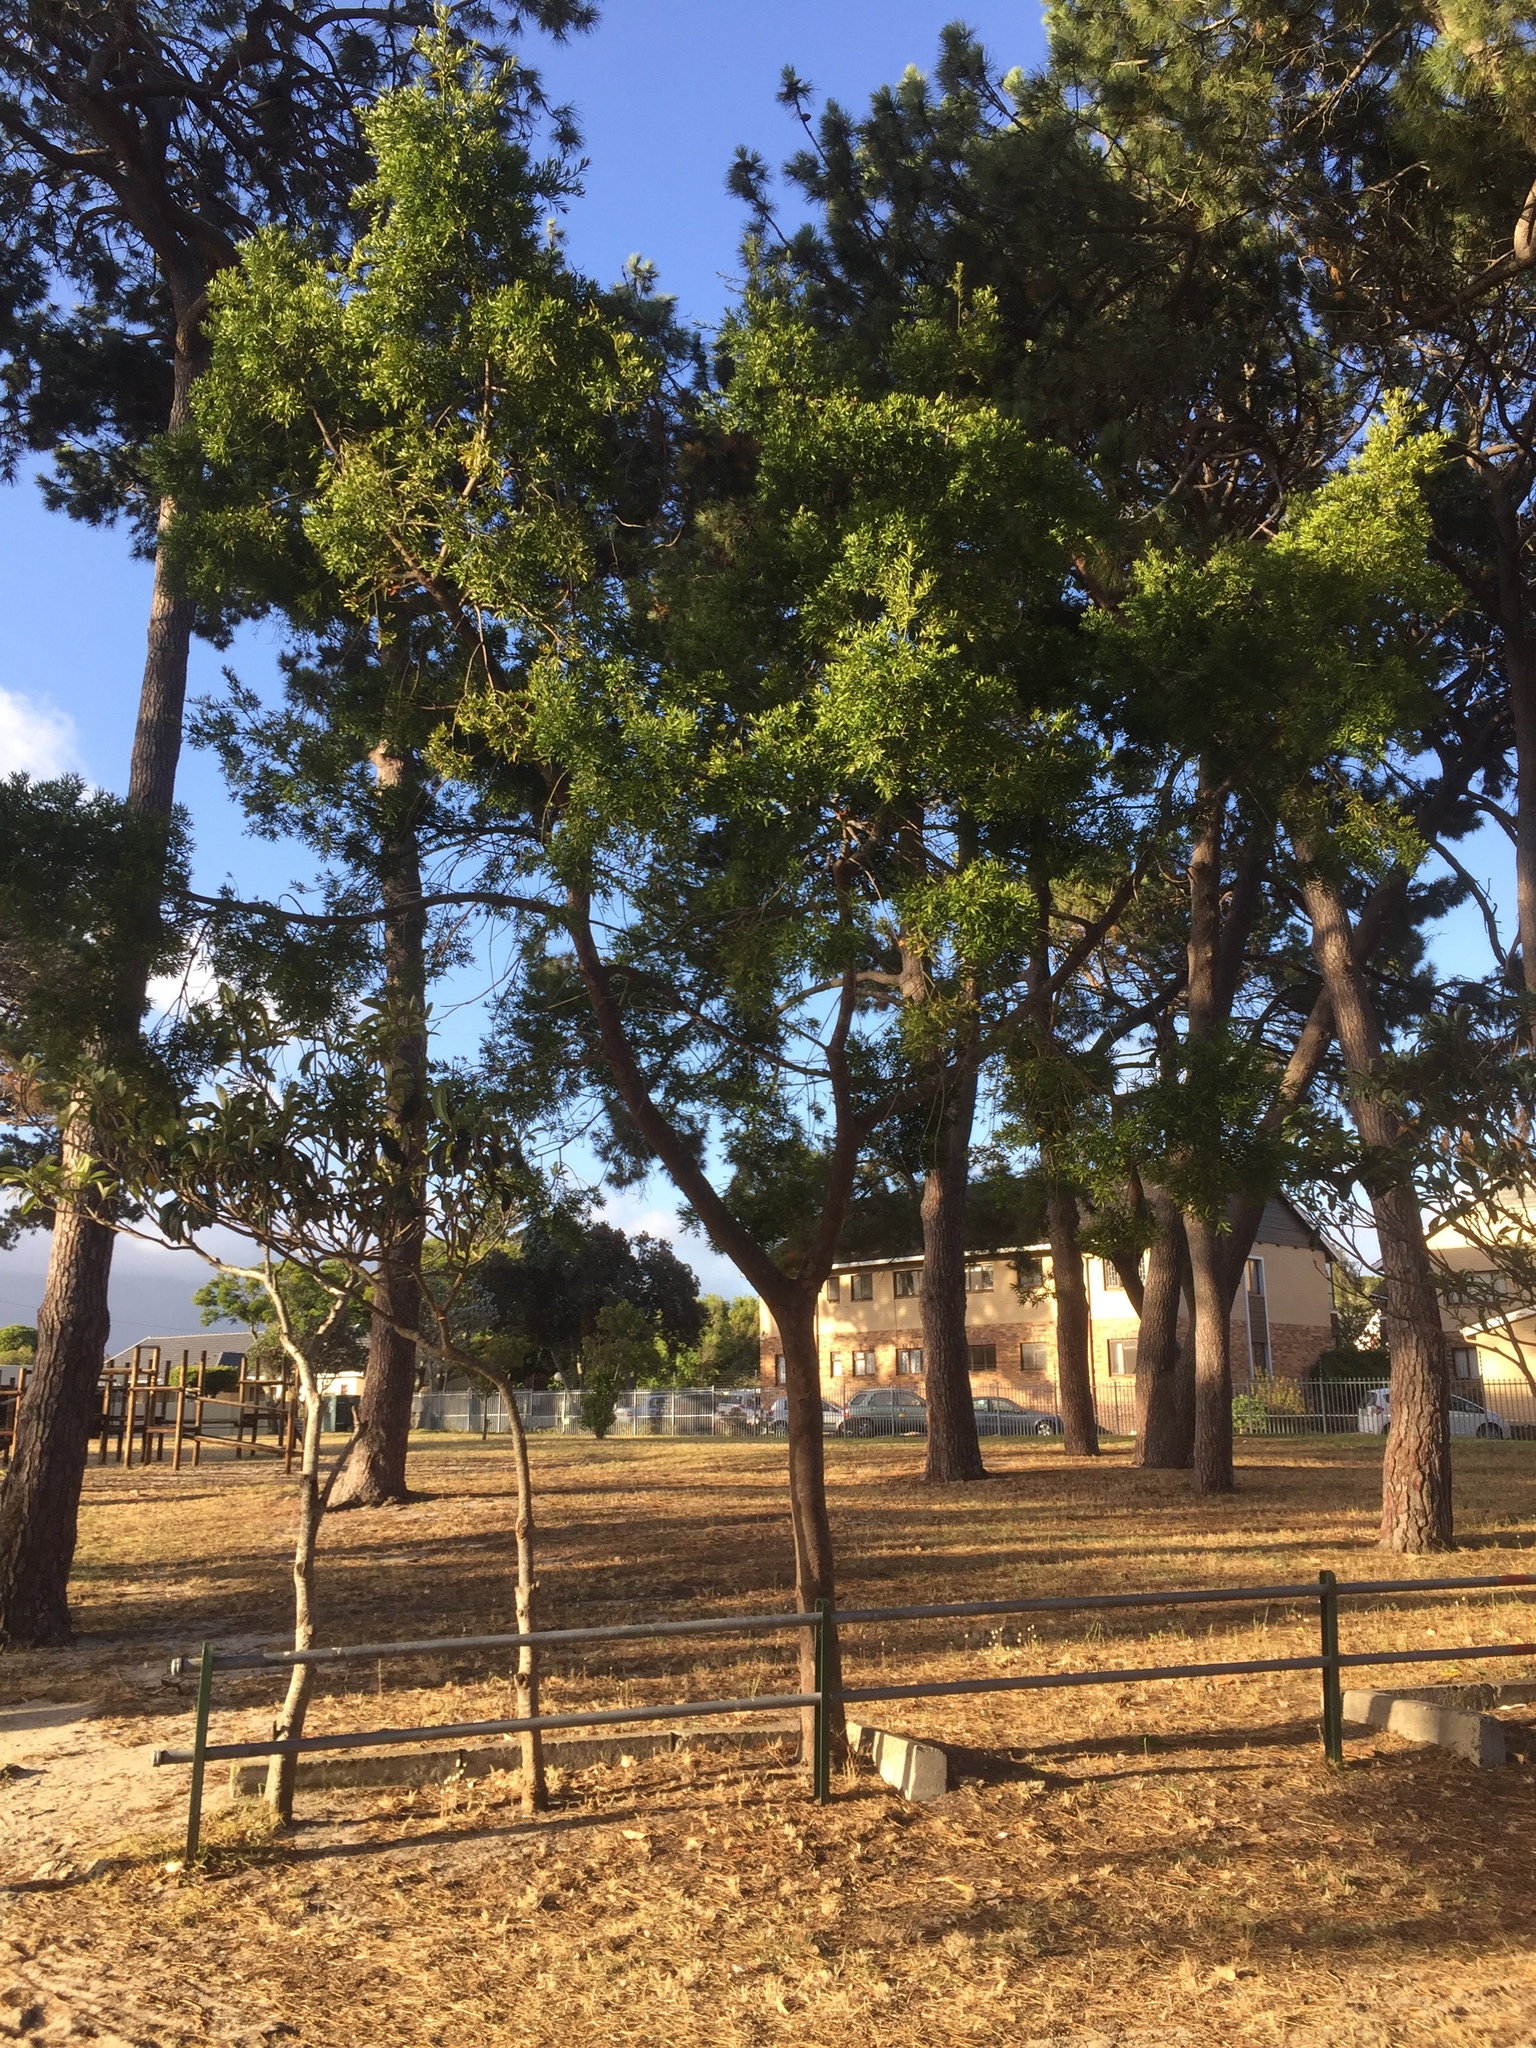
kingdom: Plantae
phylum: Tracheophyta
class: Pinopsida
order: Pinales
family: Podocarpaceae
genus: Afrocarpus
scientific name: Afrocarpus falcatus
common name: Bastard yellowwood
